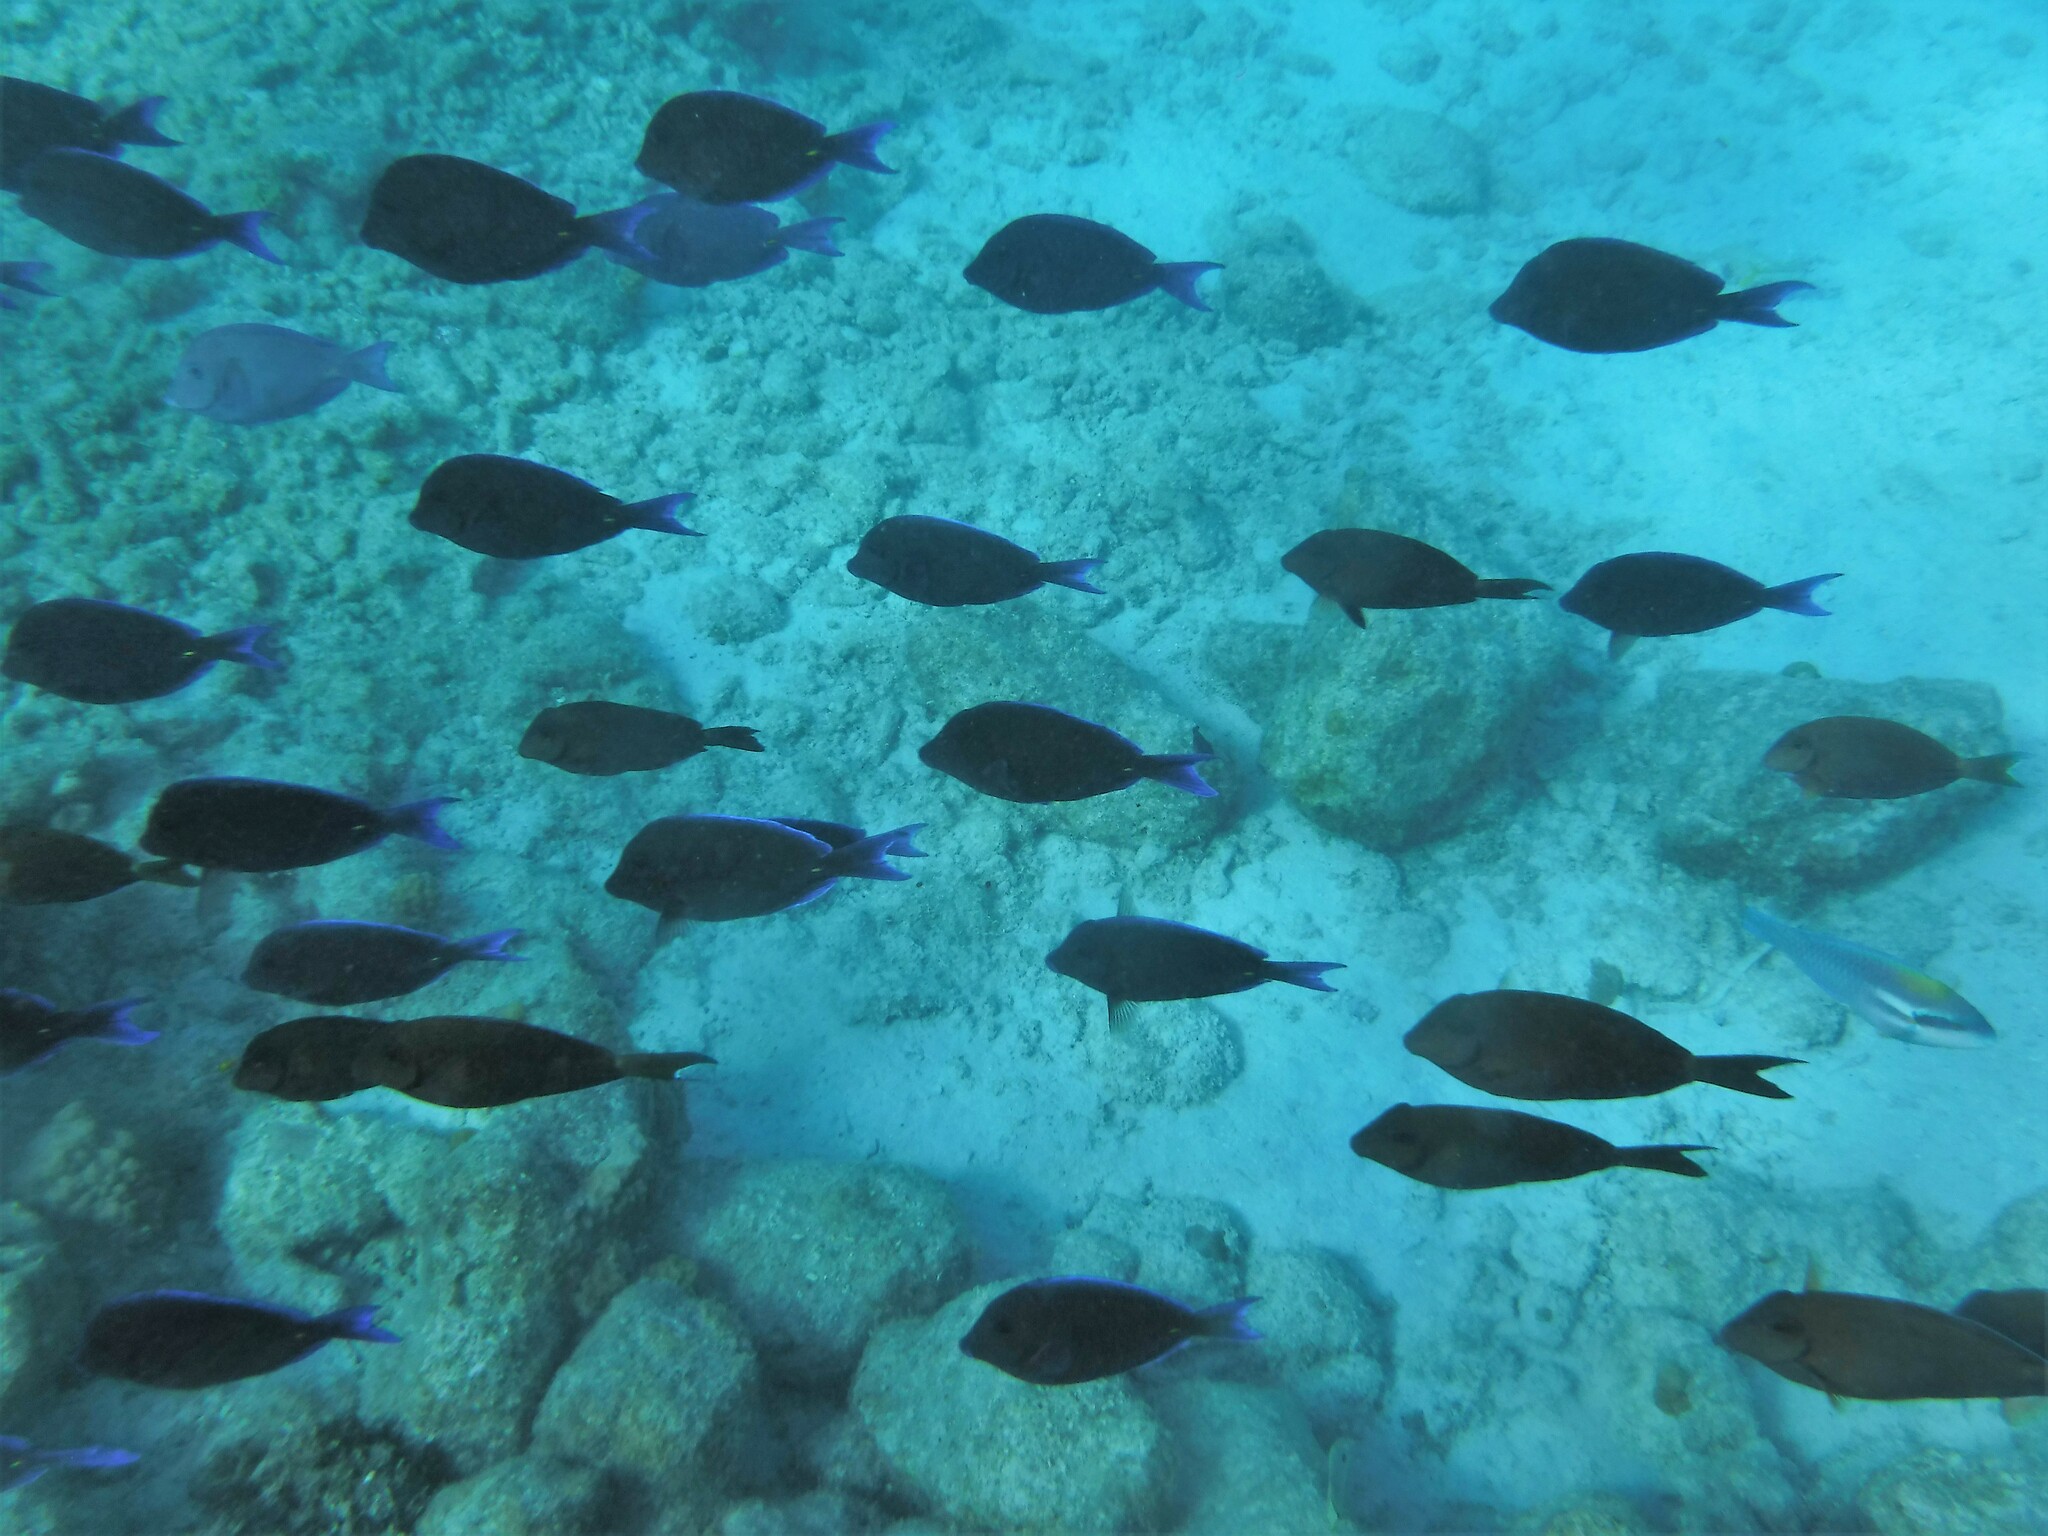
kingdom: Animalia
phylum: Chordata
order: Perciformes
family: Acanthuridae
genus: Acanthurus
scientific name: Acanthurus coeruleus
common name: Blue tang
